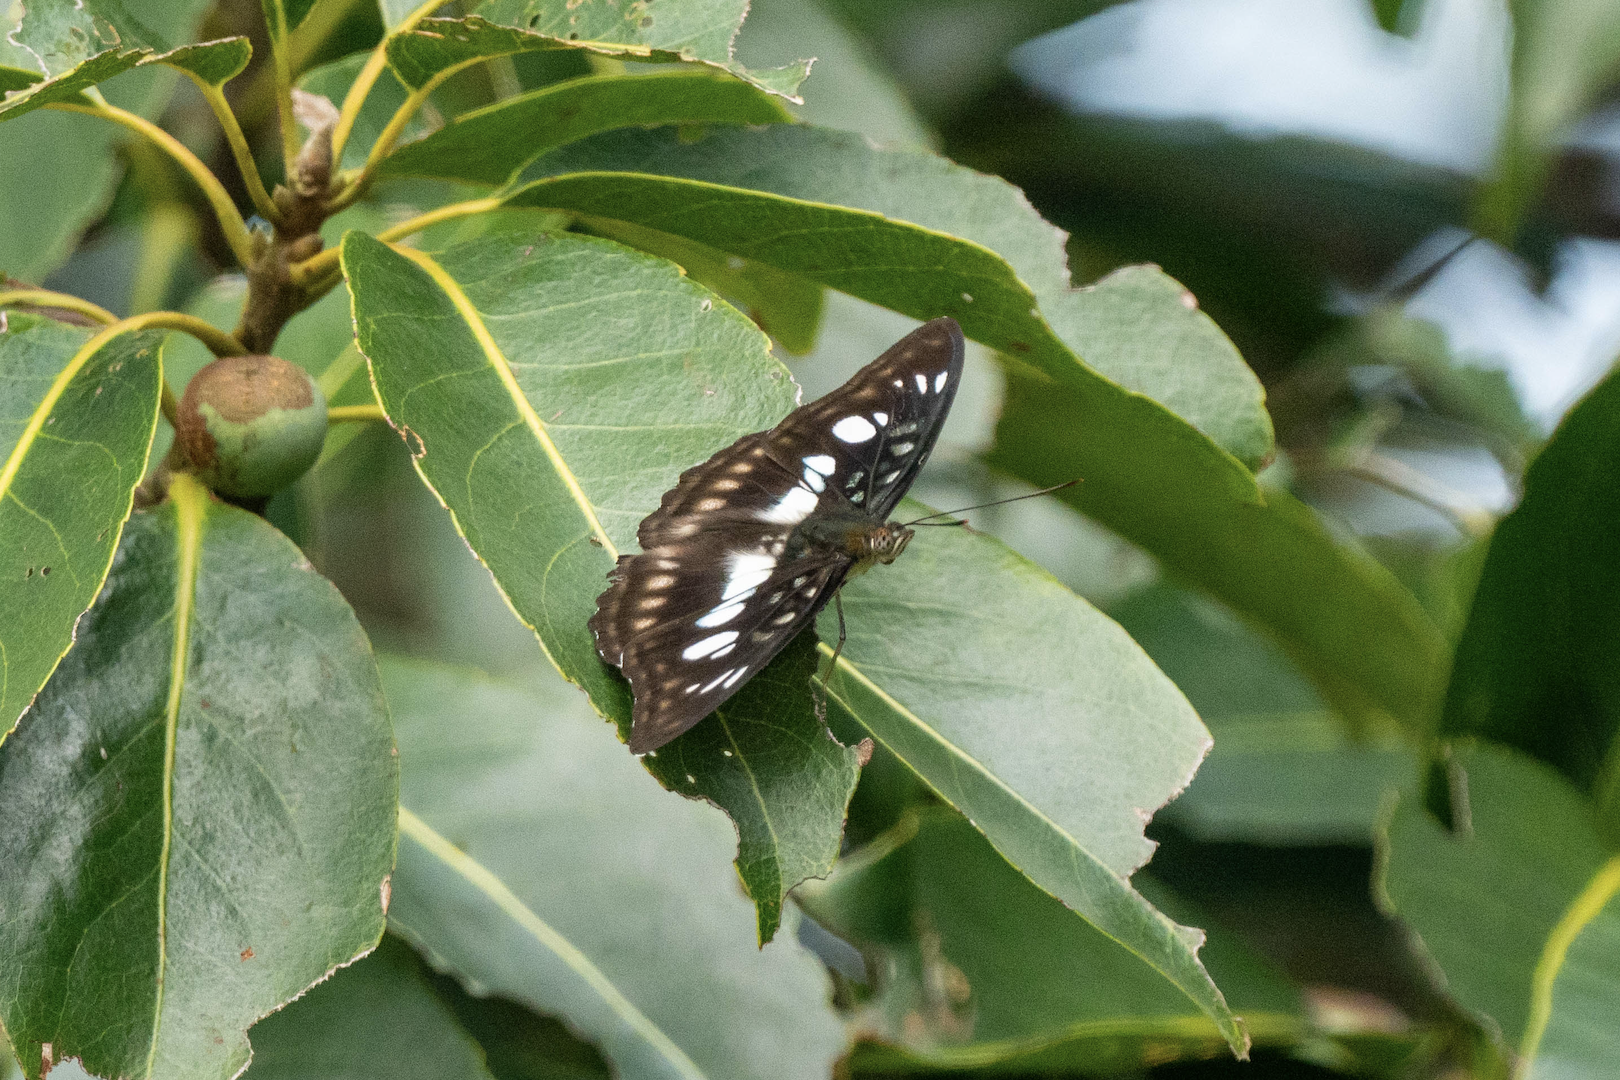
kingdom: Animalia
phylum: Arthropoda
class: Insecta
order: Lepidoptera
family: Nymphalidae
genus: Parathyma
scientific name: Parathyma ranga
